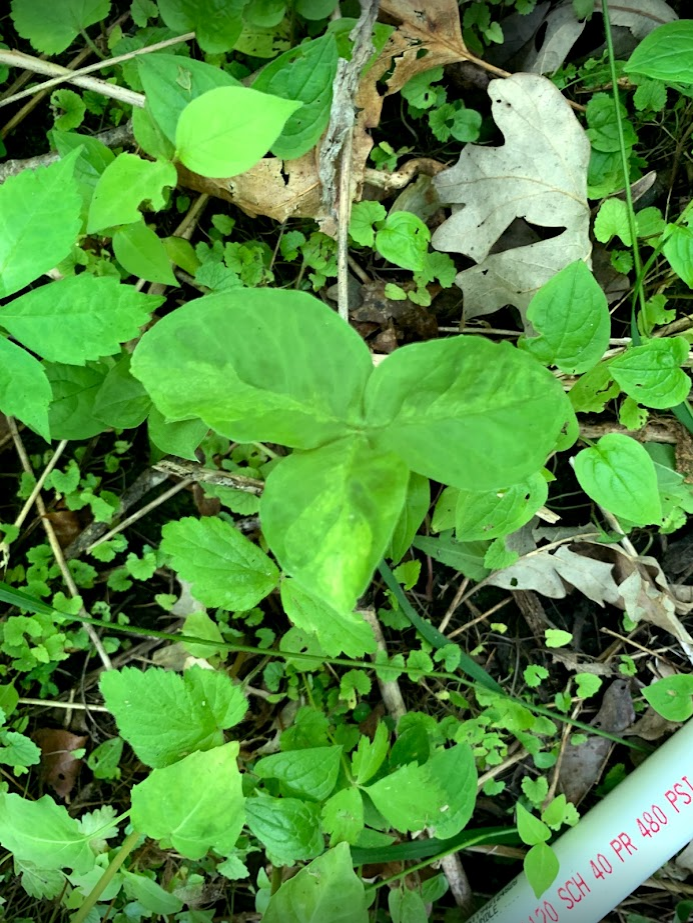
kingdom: Plantae
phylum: Tracheophyta
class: Liliopsida
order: Alismatales
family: Araceae
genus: Arisaema
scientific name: Arisaema triphyllum
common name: Jack-in-the-pulpit
